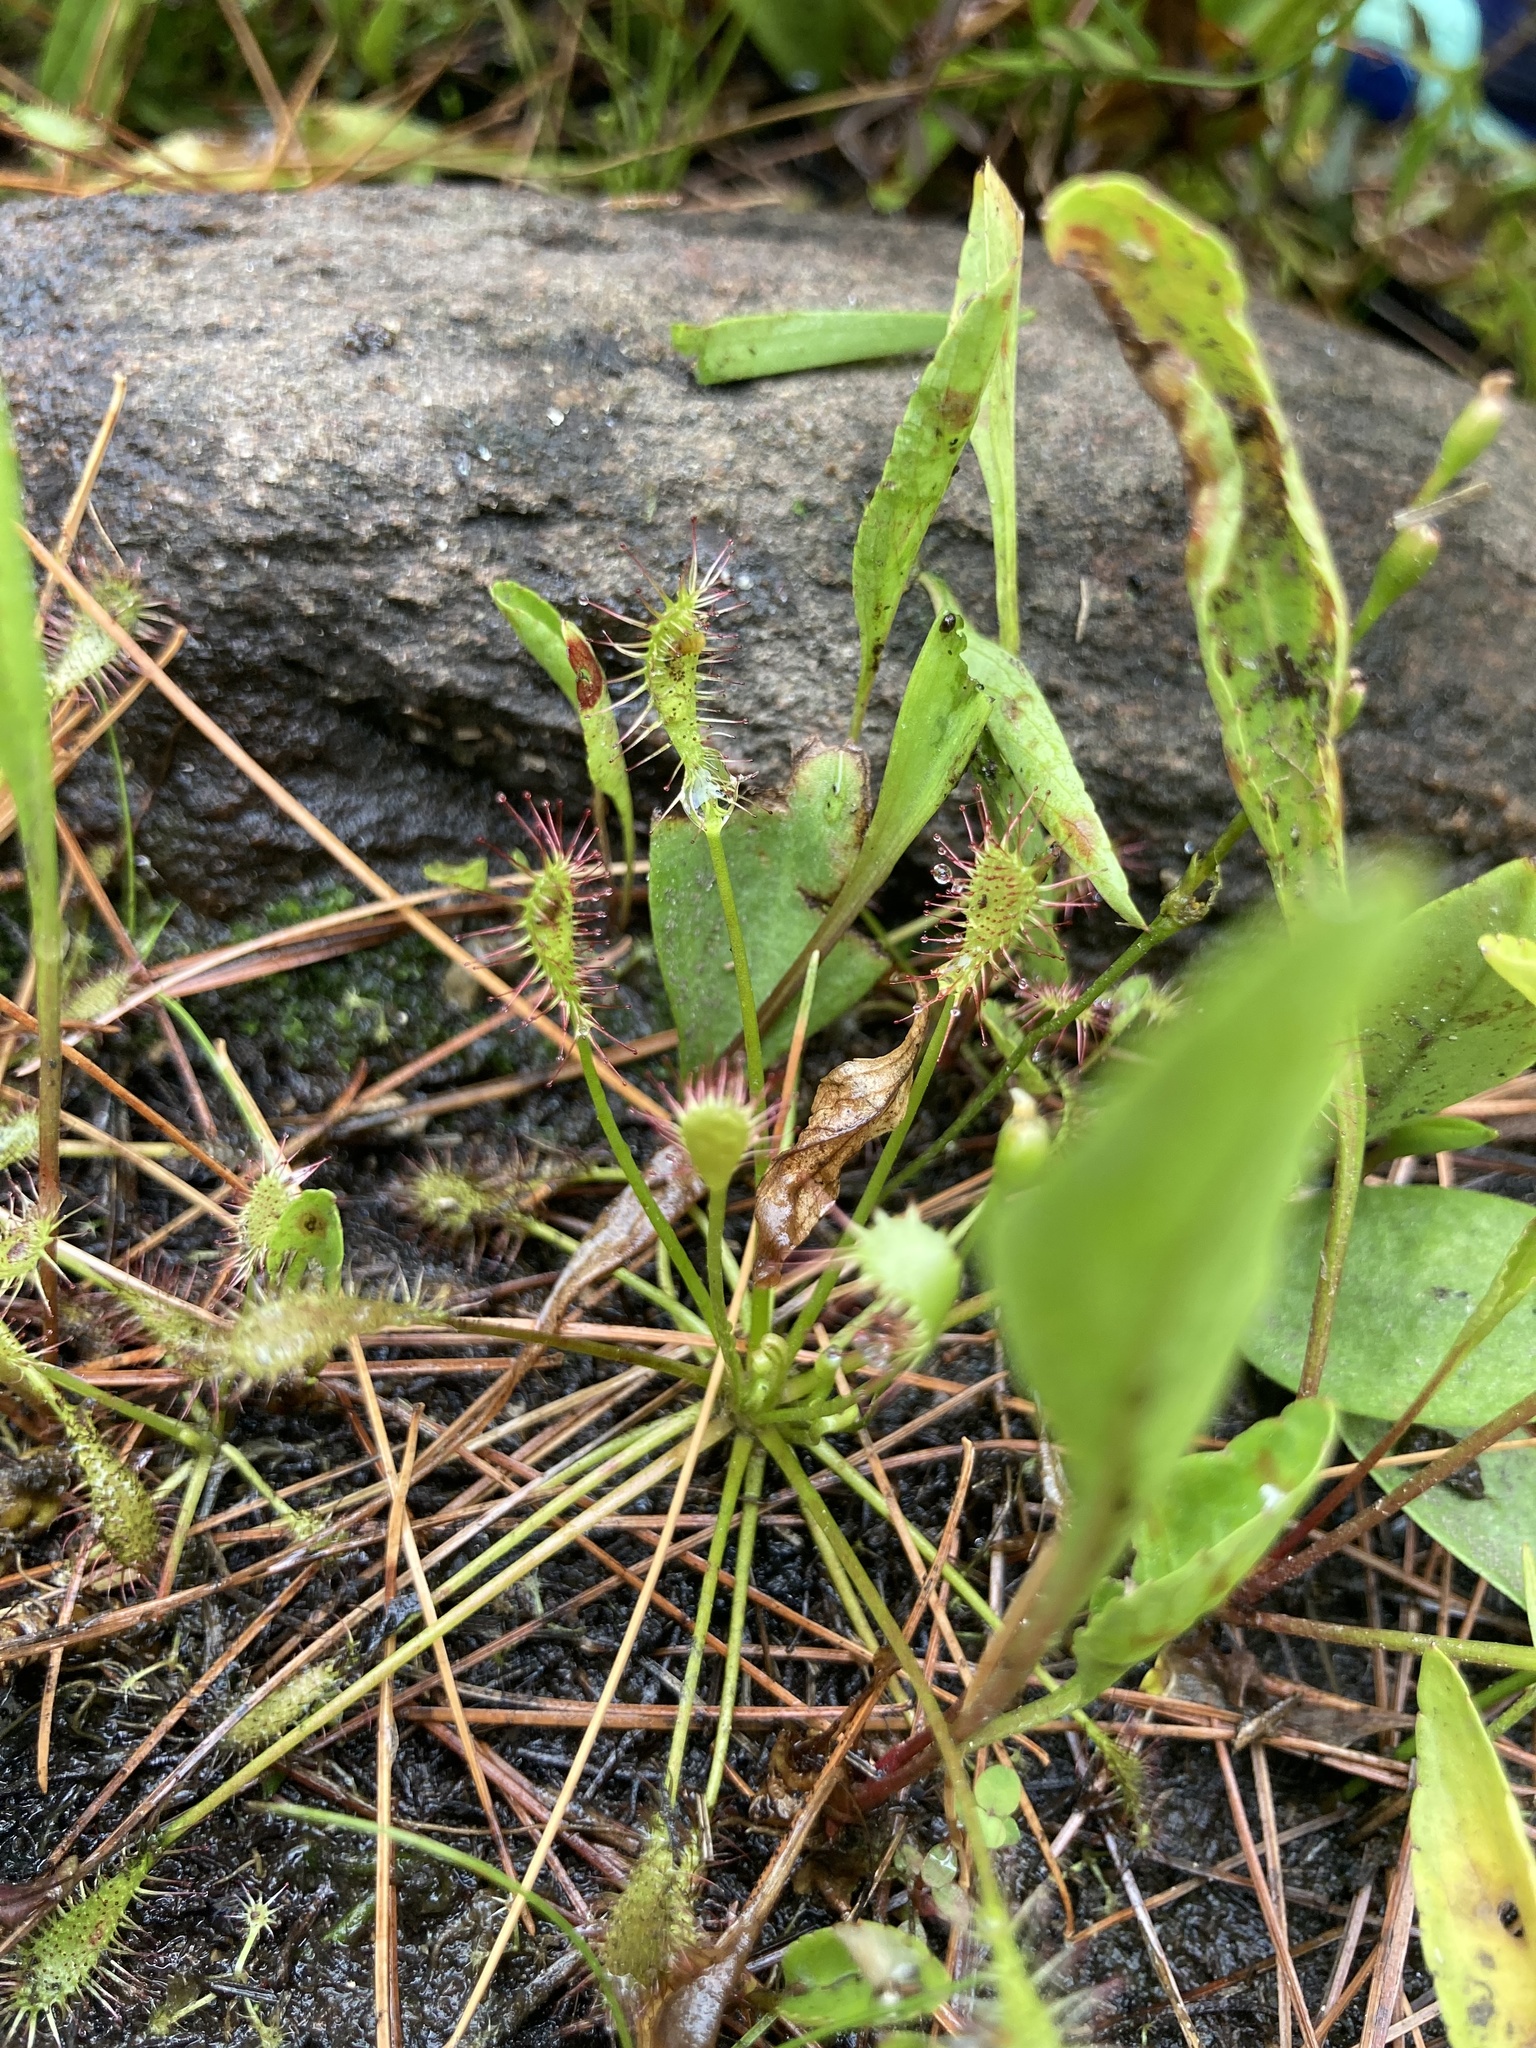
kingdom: Plantae
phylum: Tracheophyta
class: Magnoliopsida
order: Caryophyllales
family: Droseraceae
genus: Drosera
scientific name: Drosera intermedia
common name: Oblong-leaved sundew
